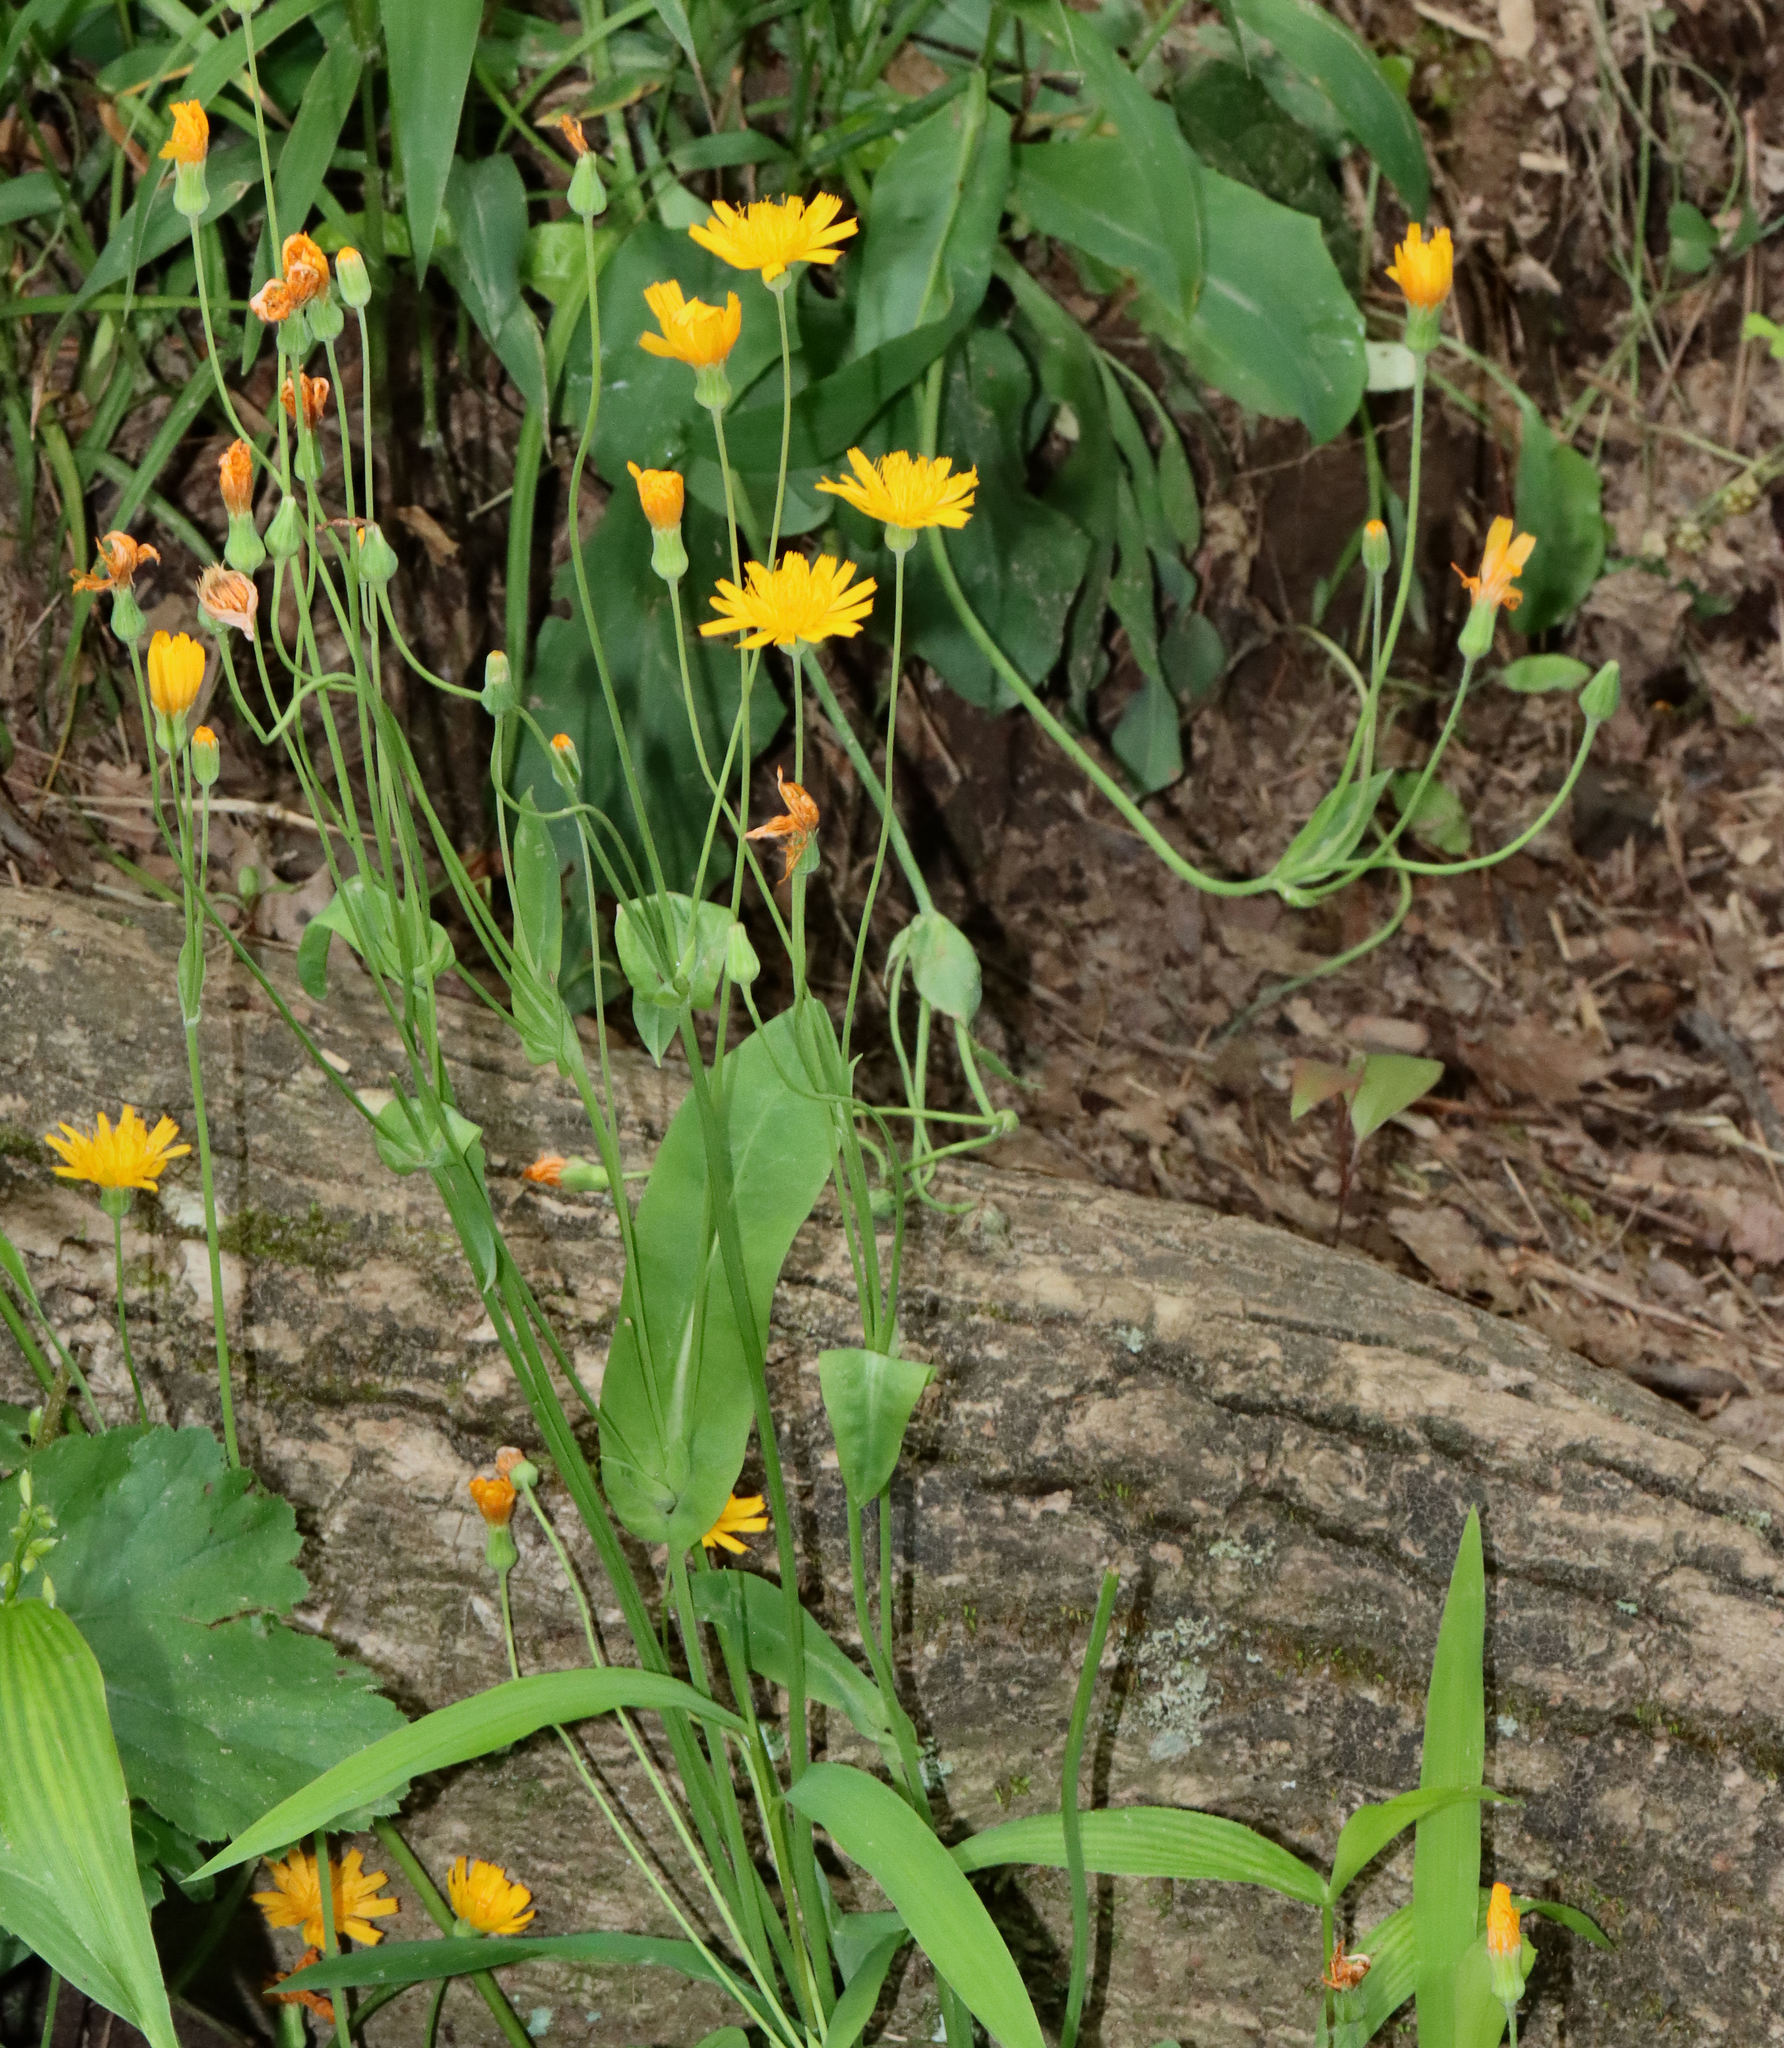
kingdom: Plantae
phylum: Tracheophyta
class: Magnoliopsida
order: Asterales
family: Asteraceae
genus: Krigia
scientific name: Krigia biflora
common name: Orange dwarf-dandelion
